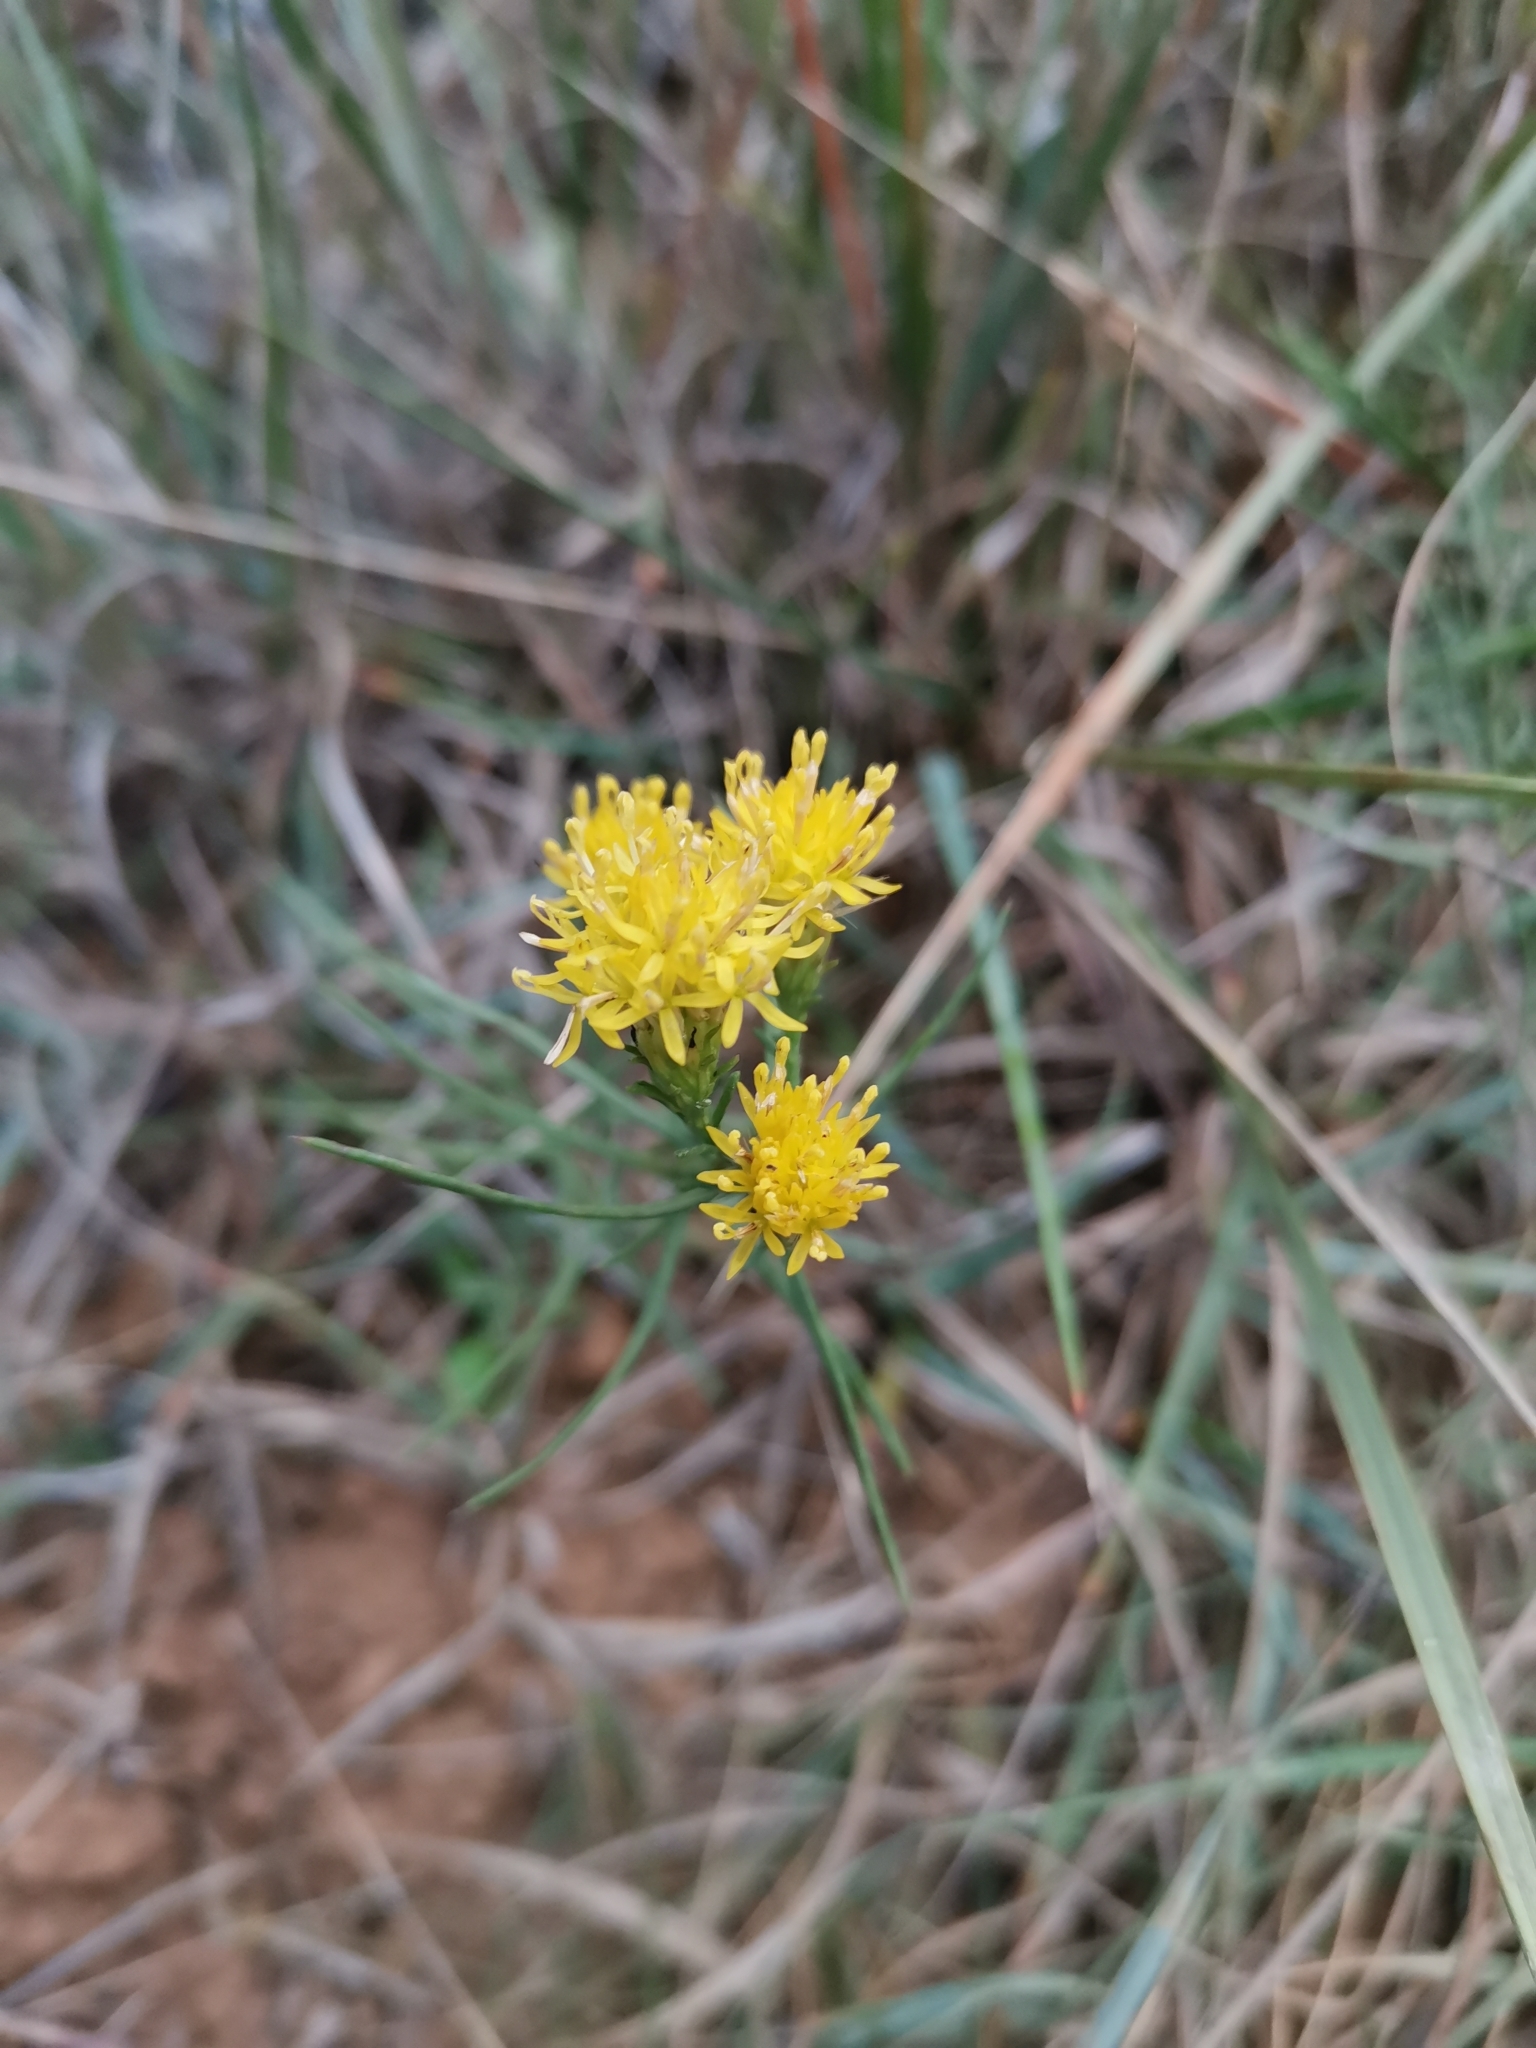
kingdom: Plantae
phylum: Tracheophyta
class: Magnoliopsida
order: Asterales
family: Asteraceae
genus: Galatella
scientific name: Galatella linosyris
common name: Goldilocks aster
